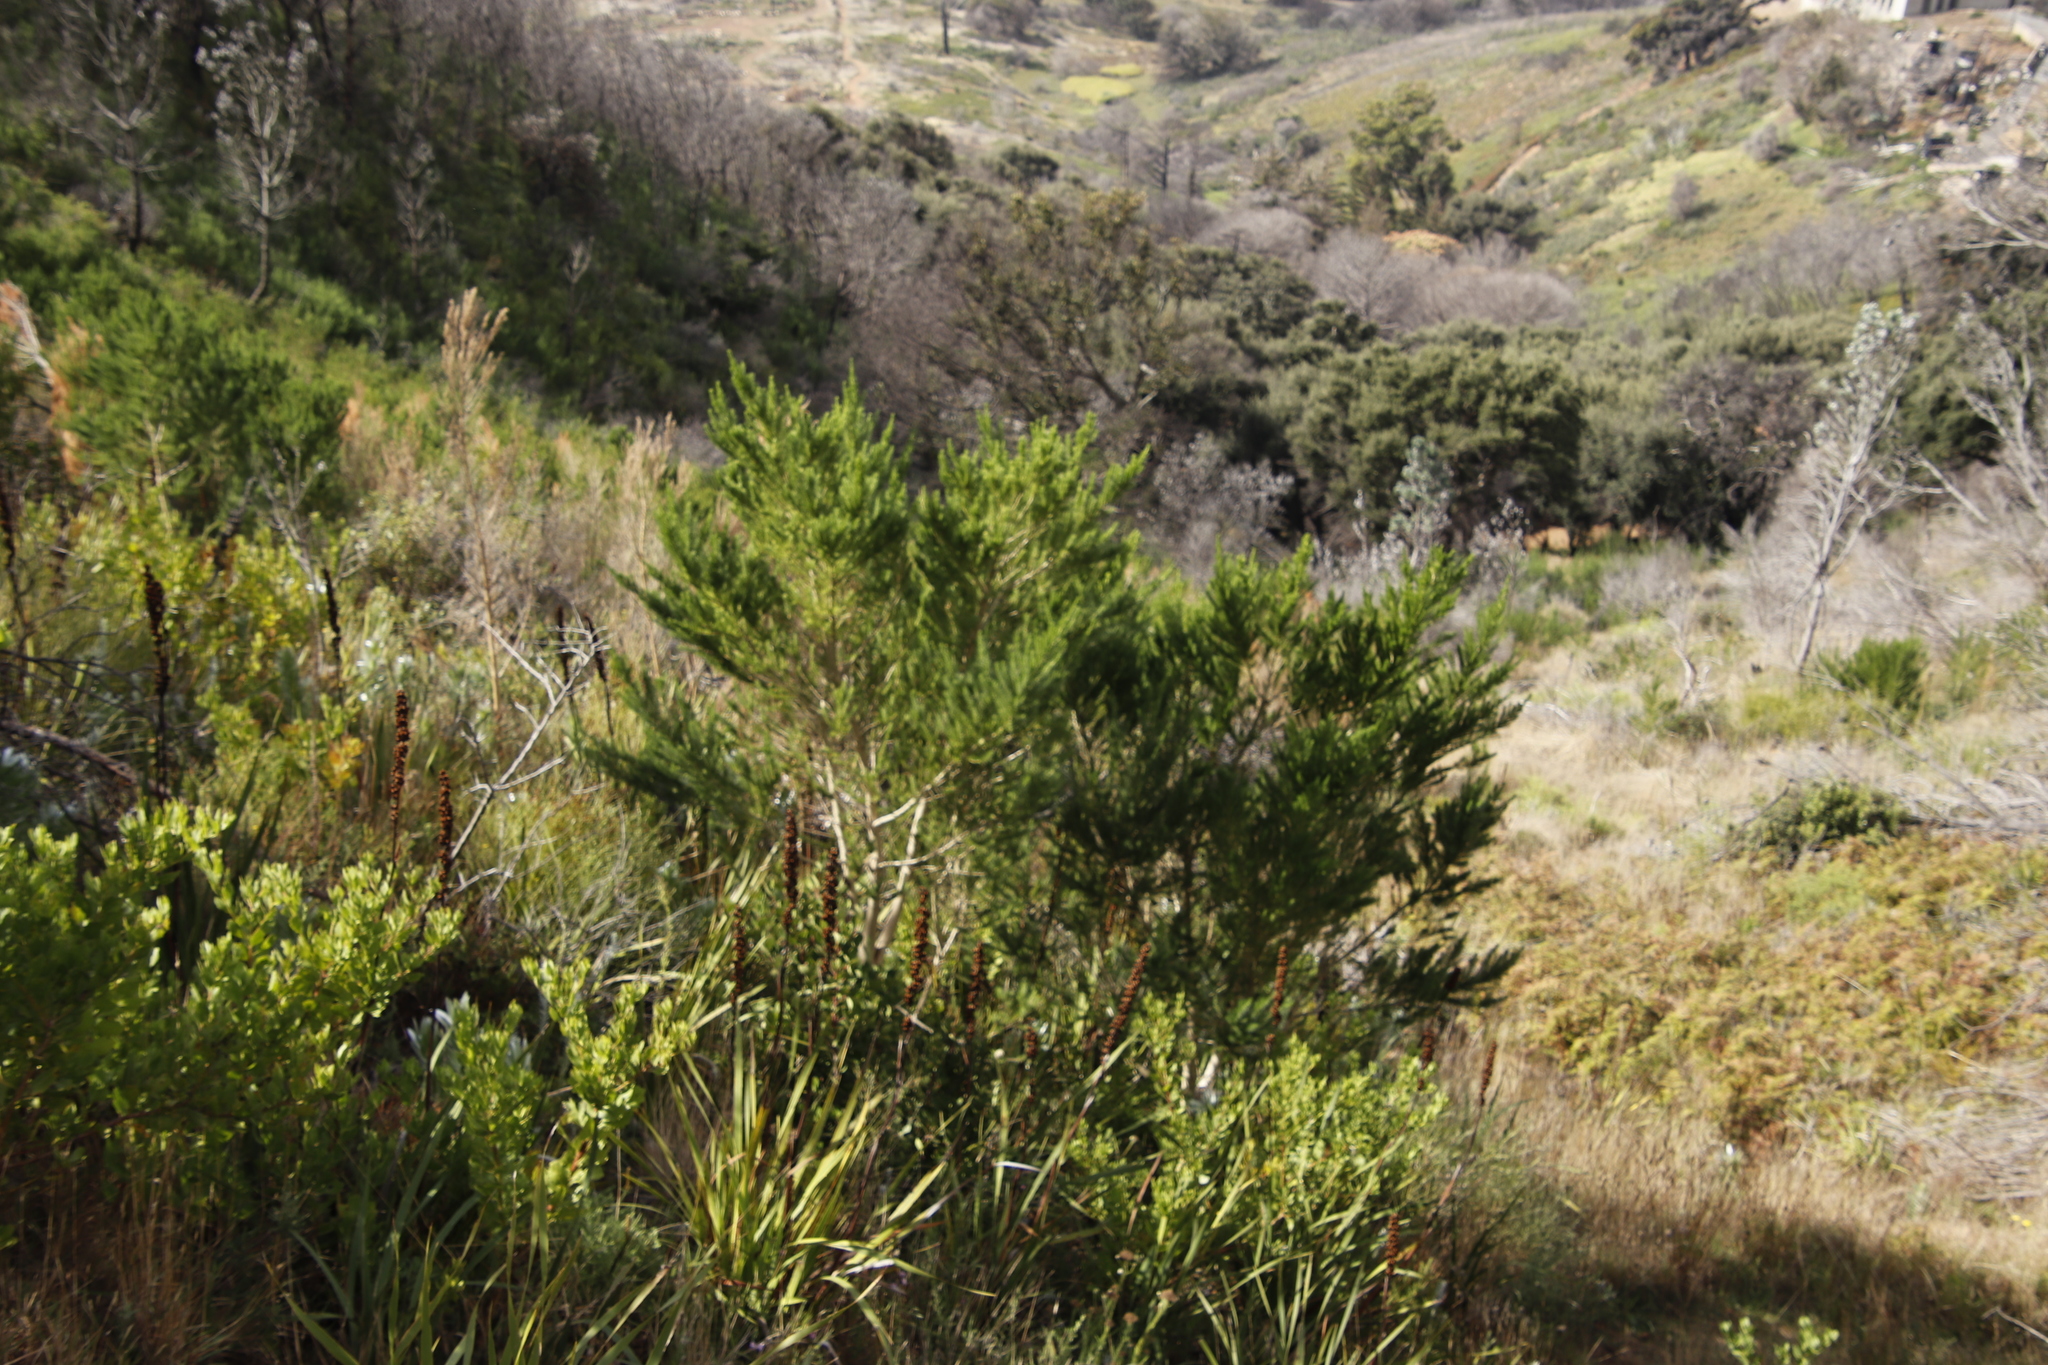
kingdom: Plantae
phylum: Tracheophyta
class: Magnoliopsida
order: Fabales
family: Fabaceae
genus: Psoralea
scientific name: Psoralea pinnata
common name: African scurfpea
